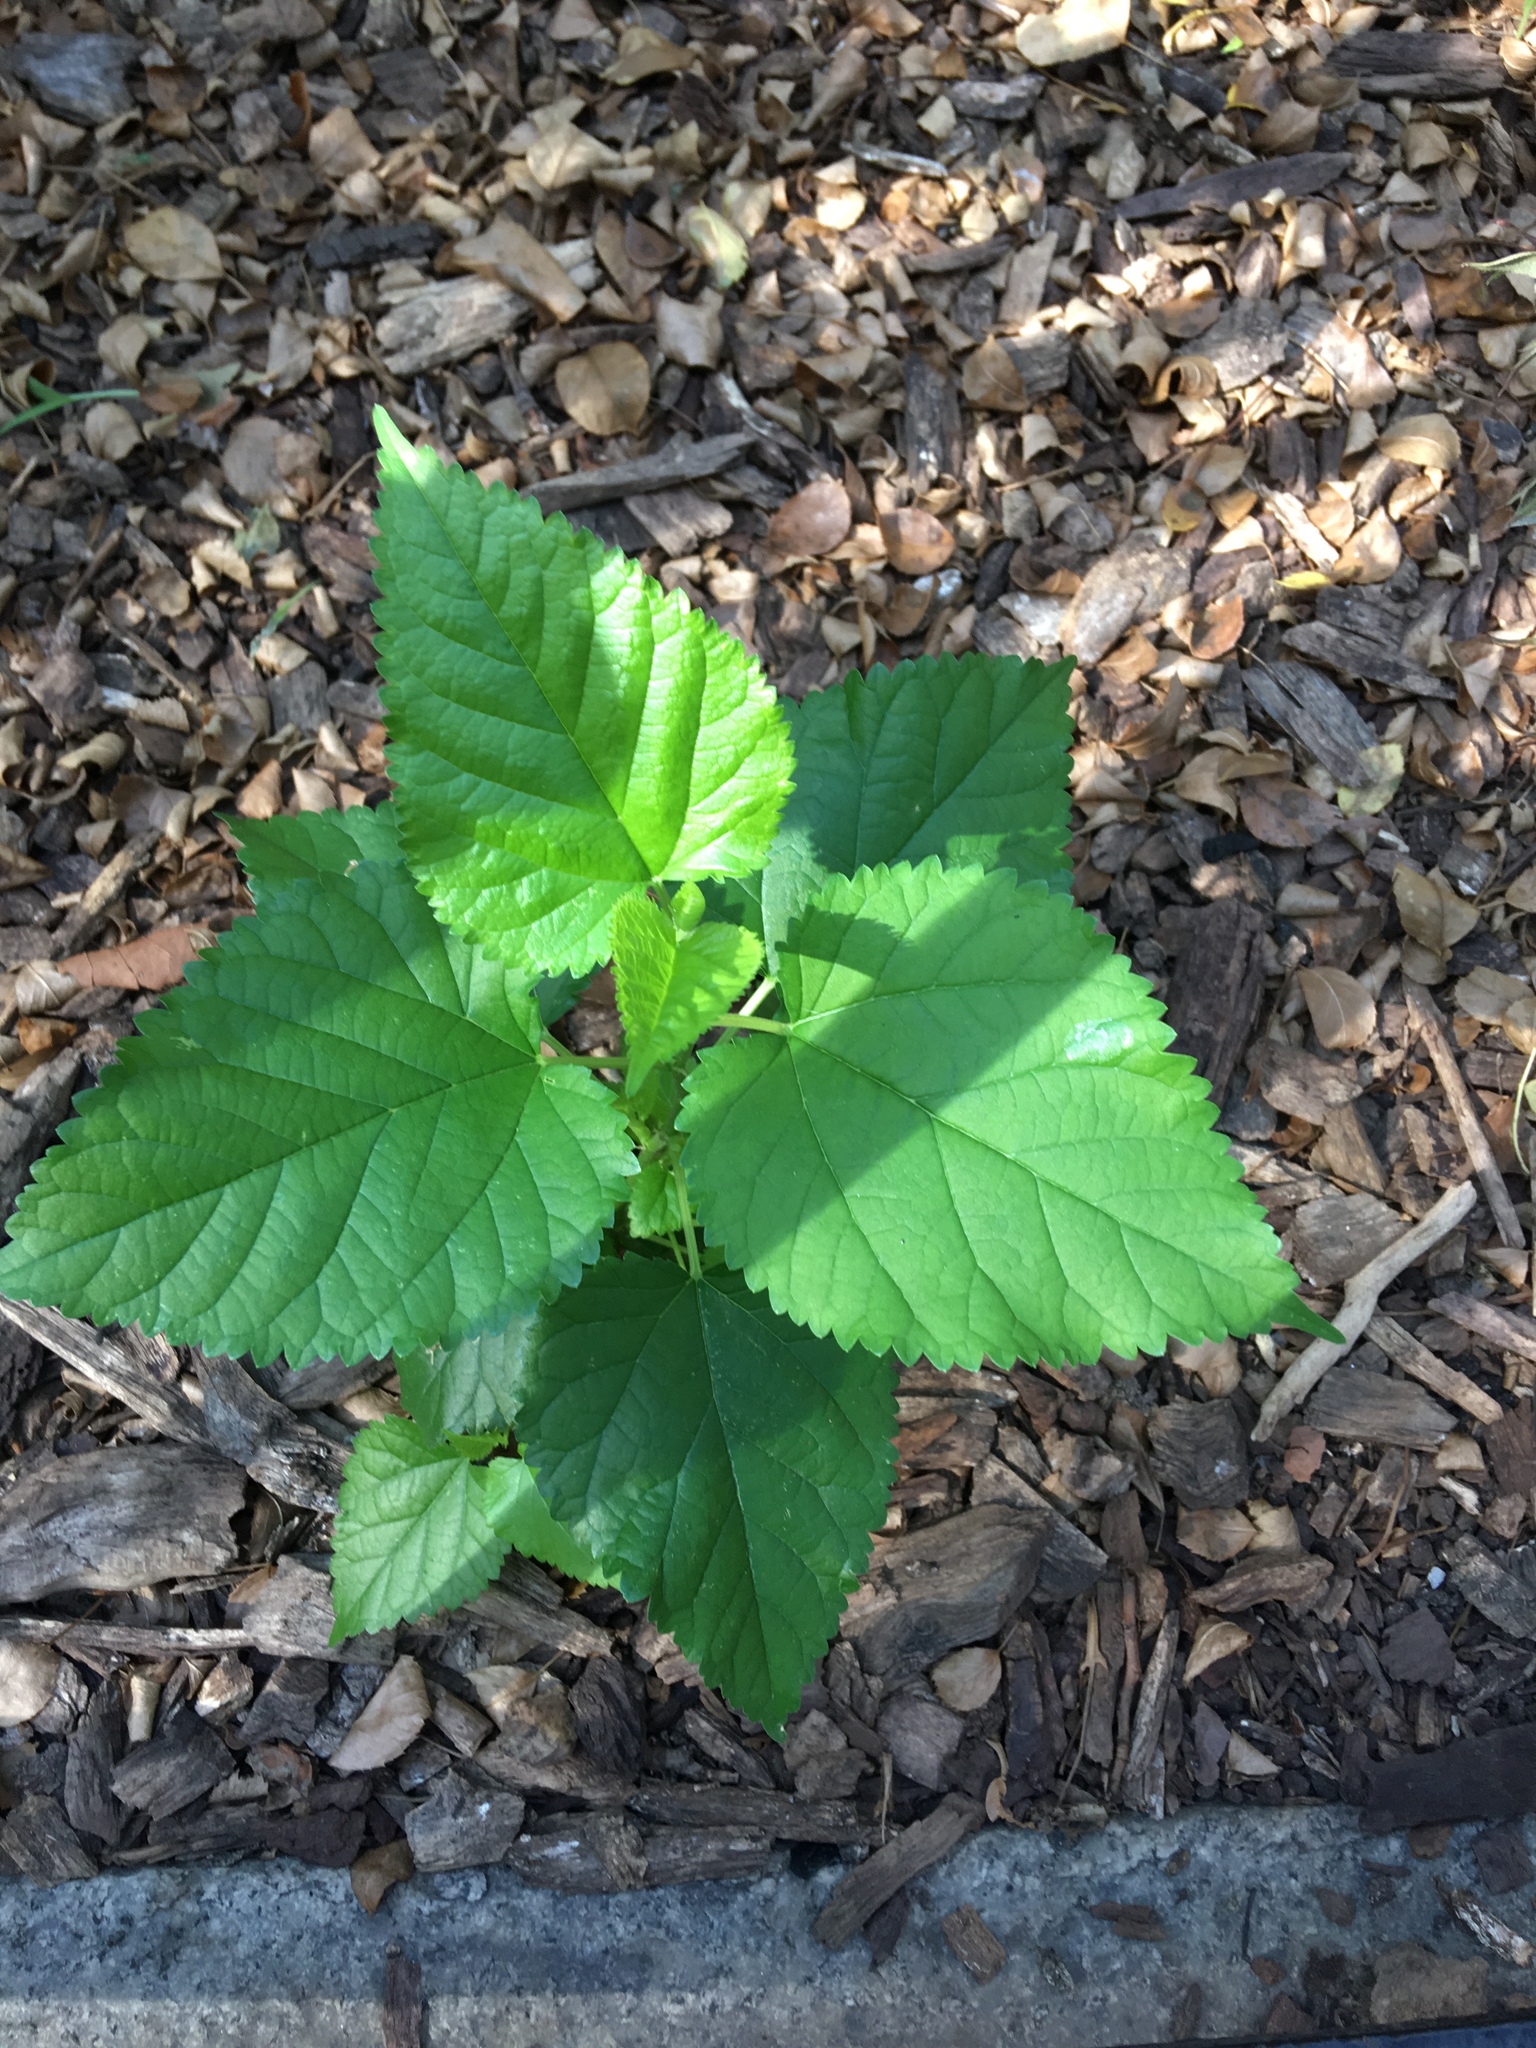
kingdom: Plantae
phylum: Tracheophyta
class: Magnoliopsida
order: Rosales
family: Moraceae
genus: Morus
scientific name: Morus alba
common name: White mulberry
